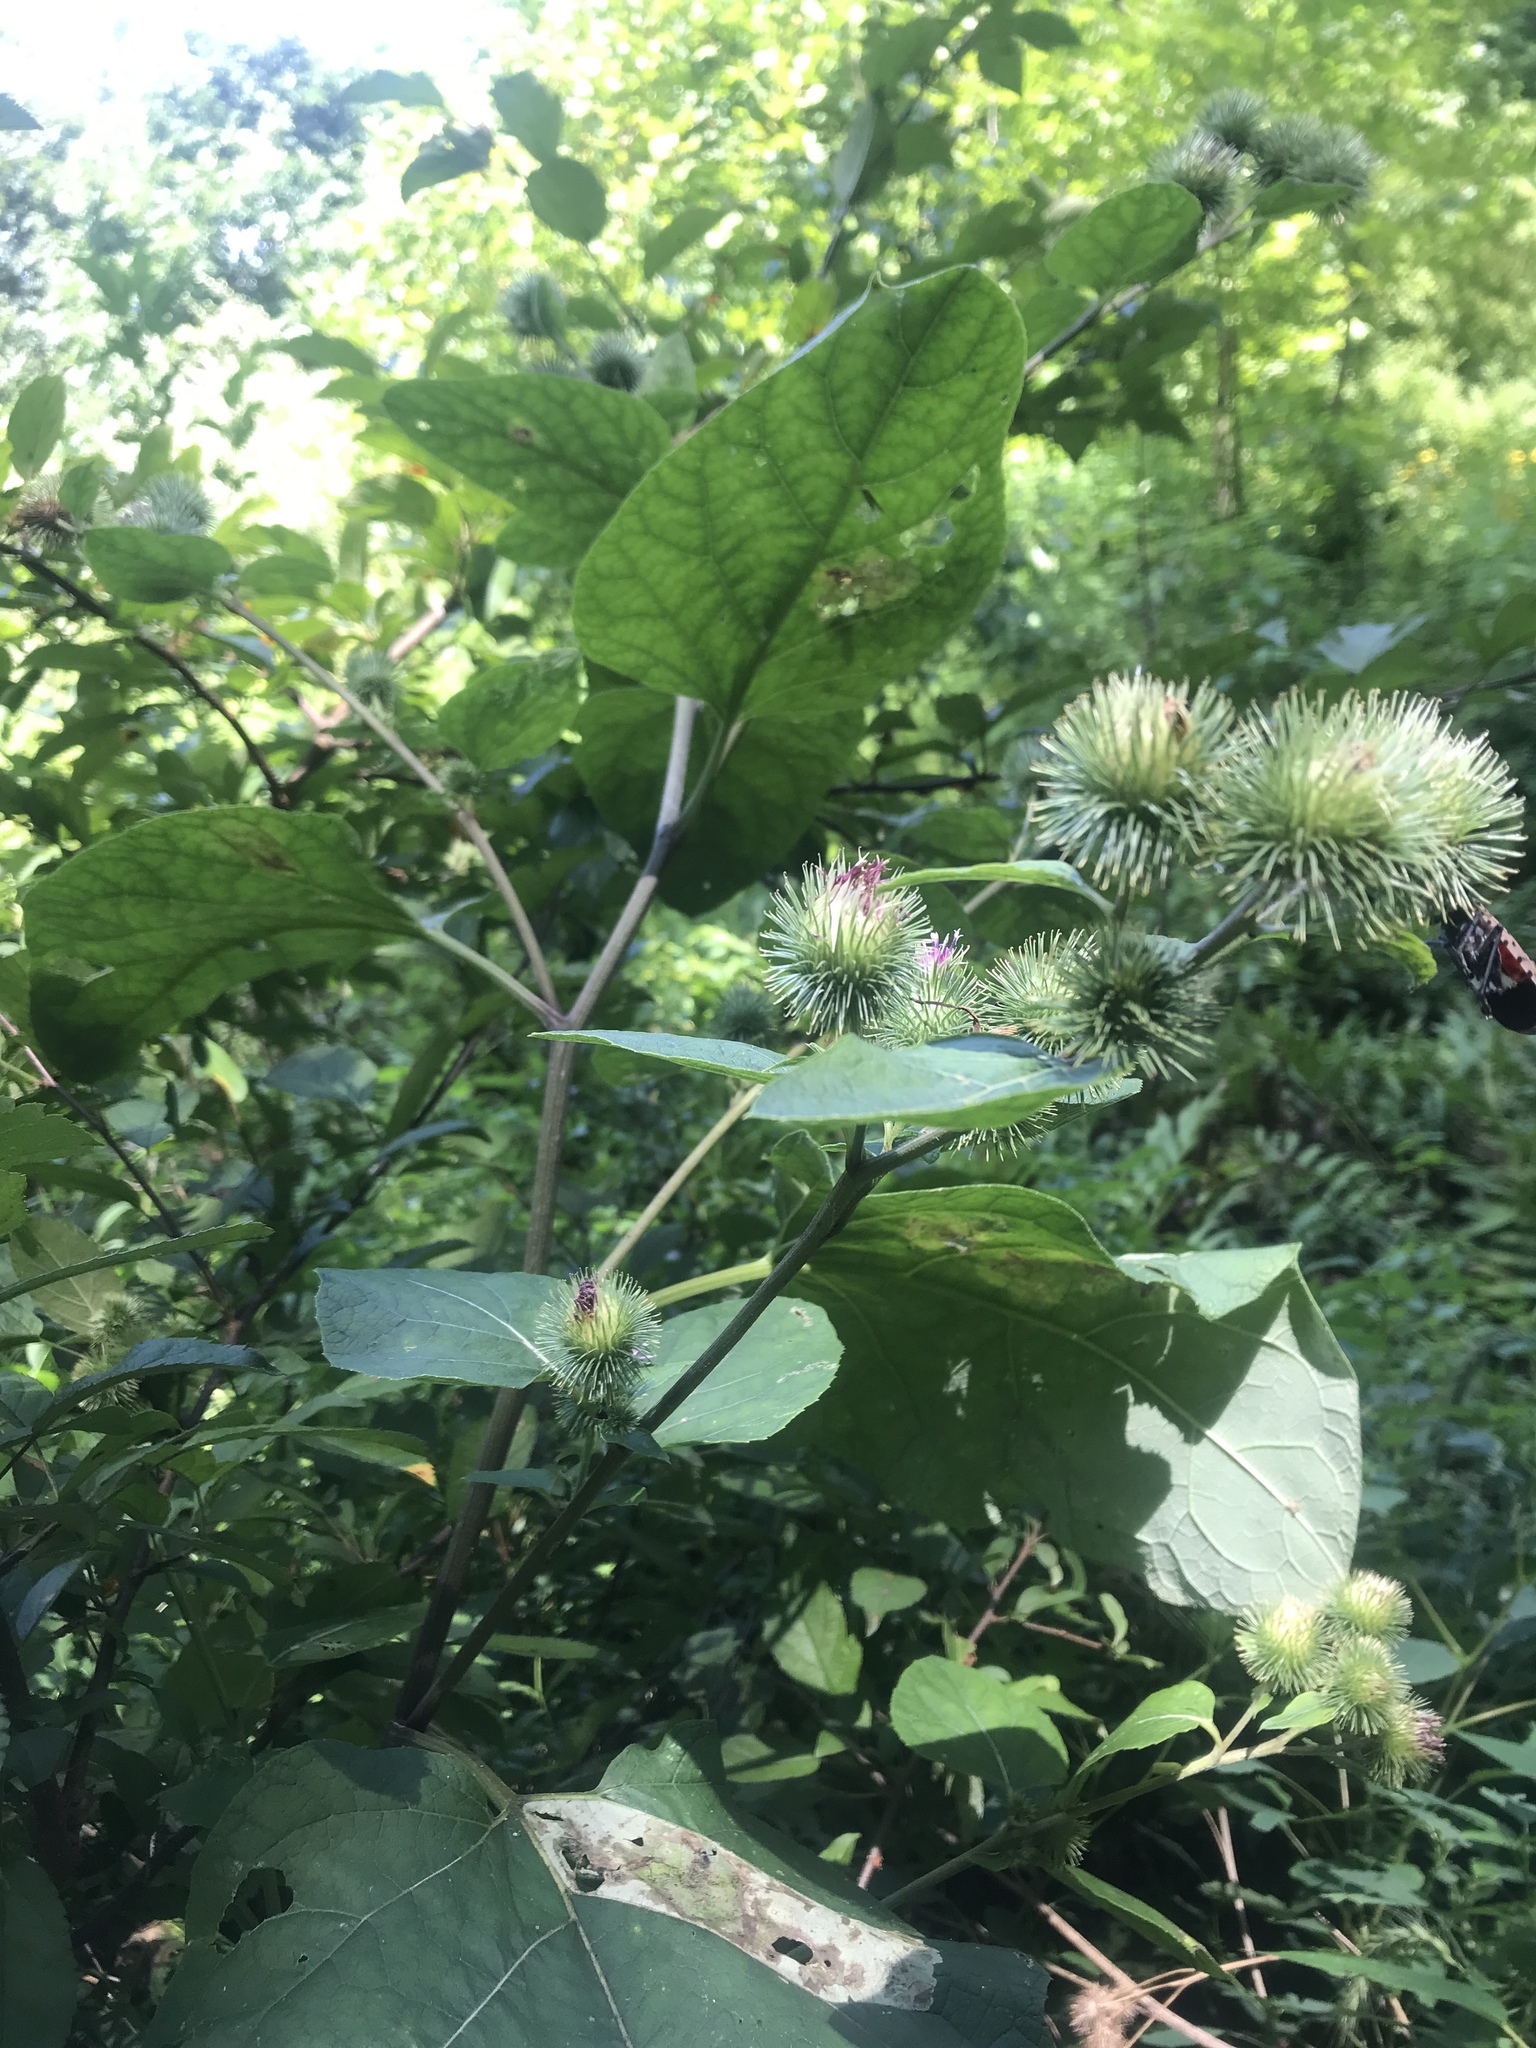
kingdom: Plantae
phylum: Tracheophyta
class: Magnoliopsida
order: Asterales
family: Asteraceae
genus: Arctium
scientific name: Arctium lappa
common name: Greater burdock
